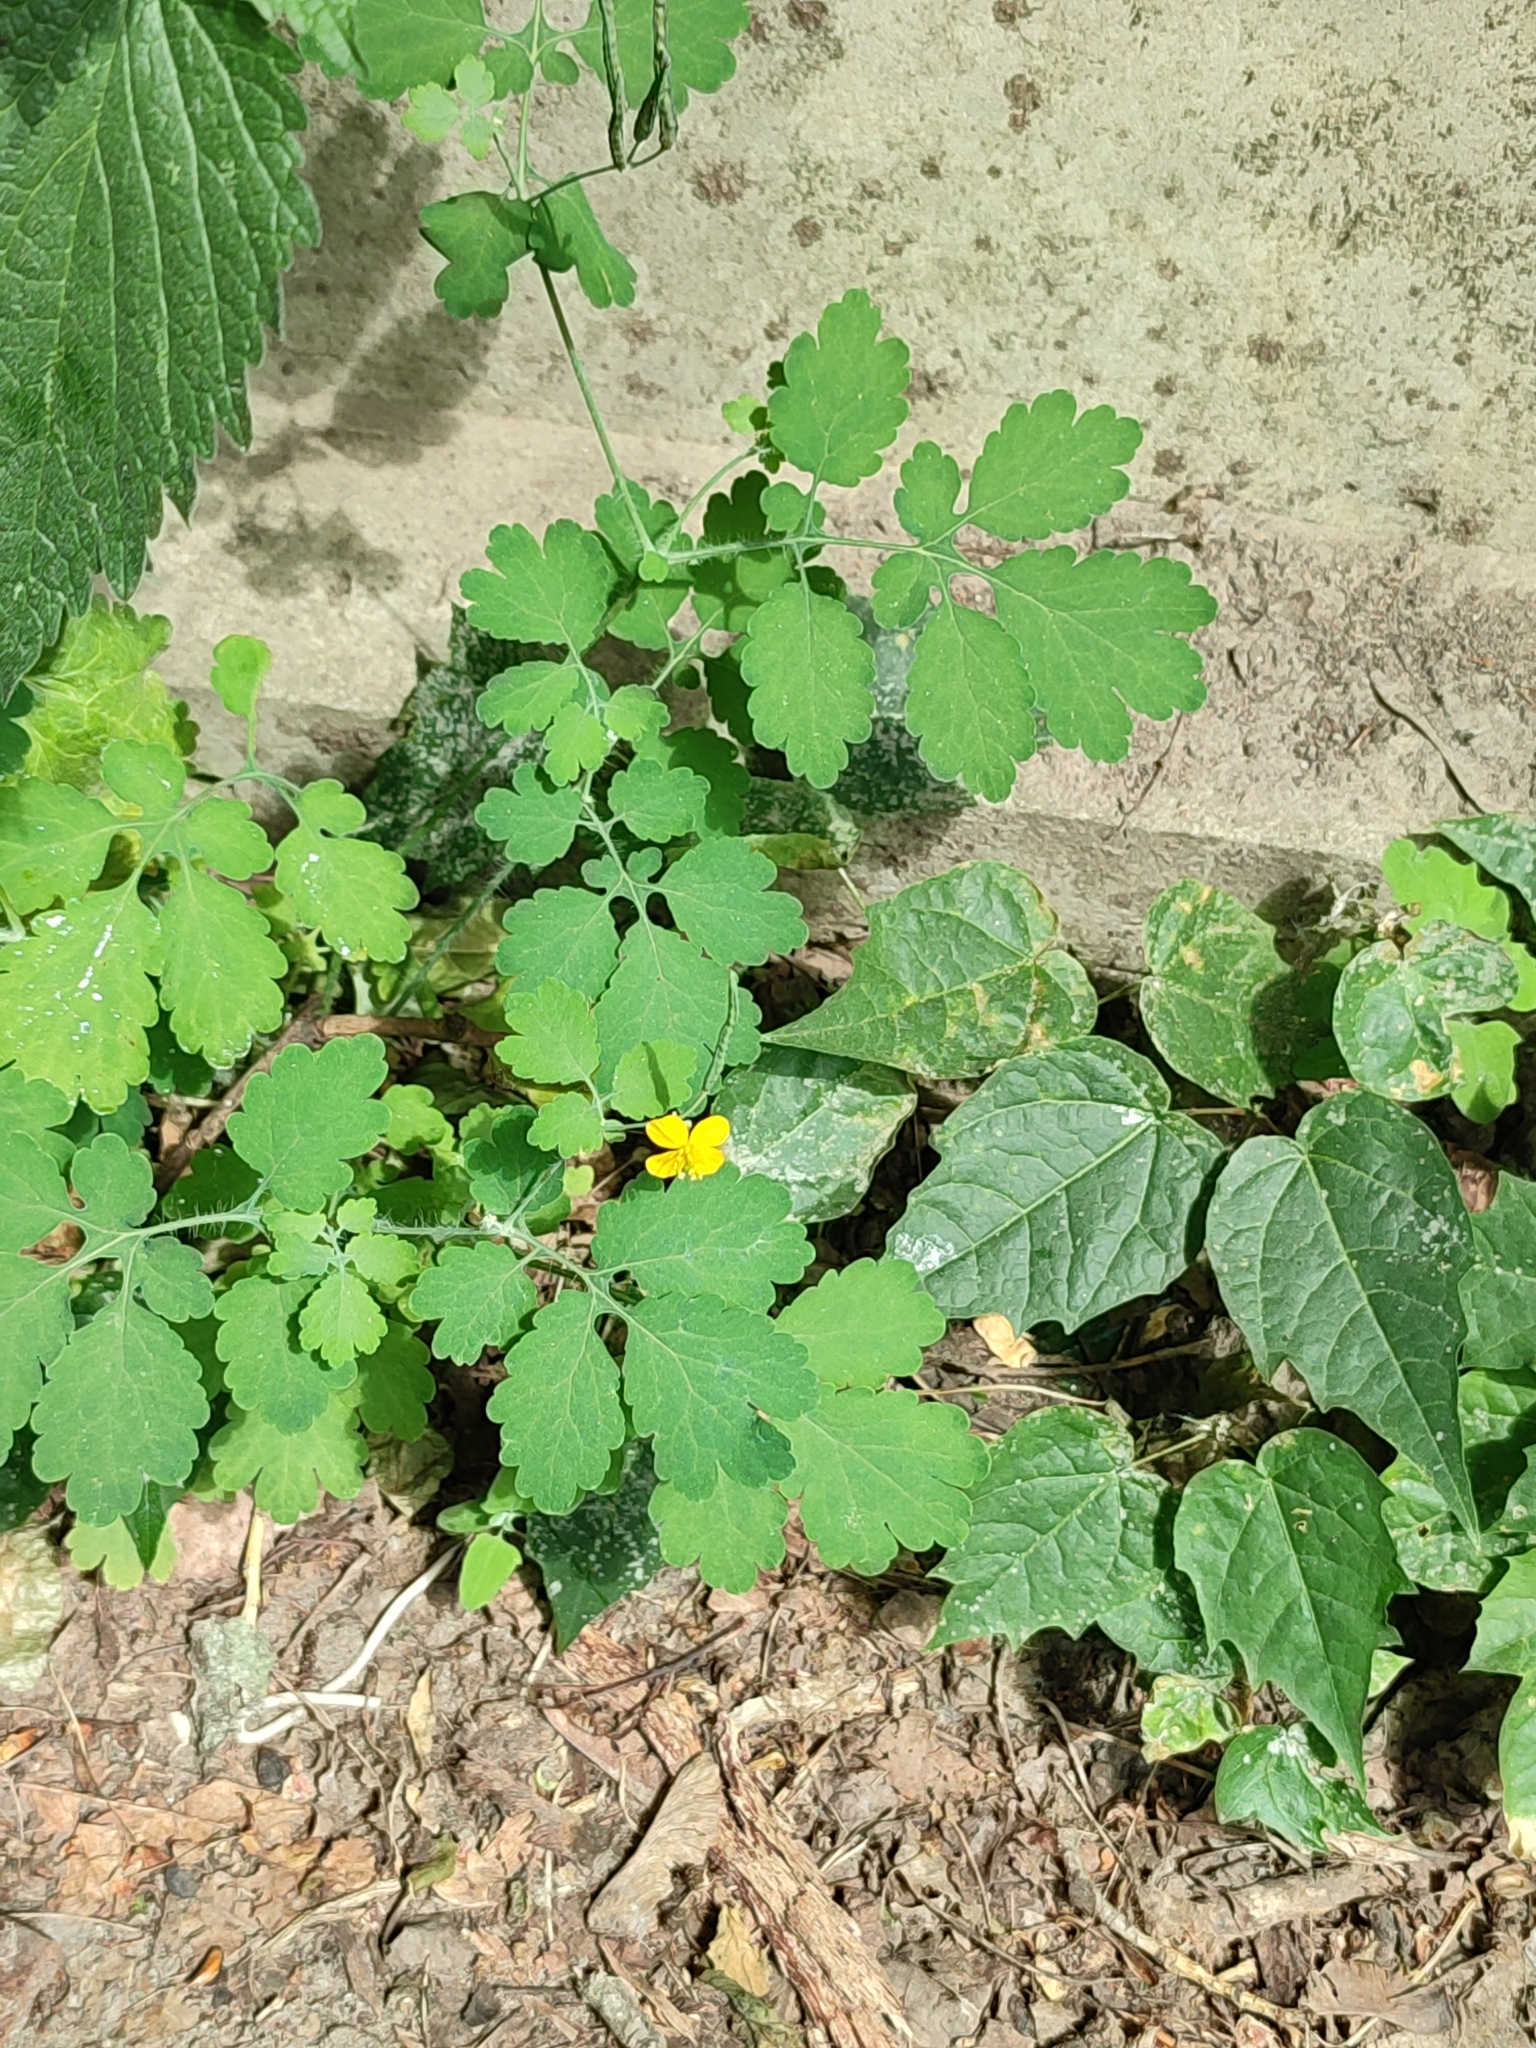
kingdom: Plantae
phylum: Tracheophyta
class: Magnoliopsida
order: Ranunculales
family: Papaveraceae
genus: Chelidonium
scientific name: Chelidonium majus
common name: Greater celandine
